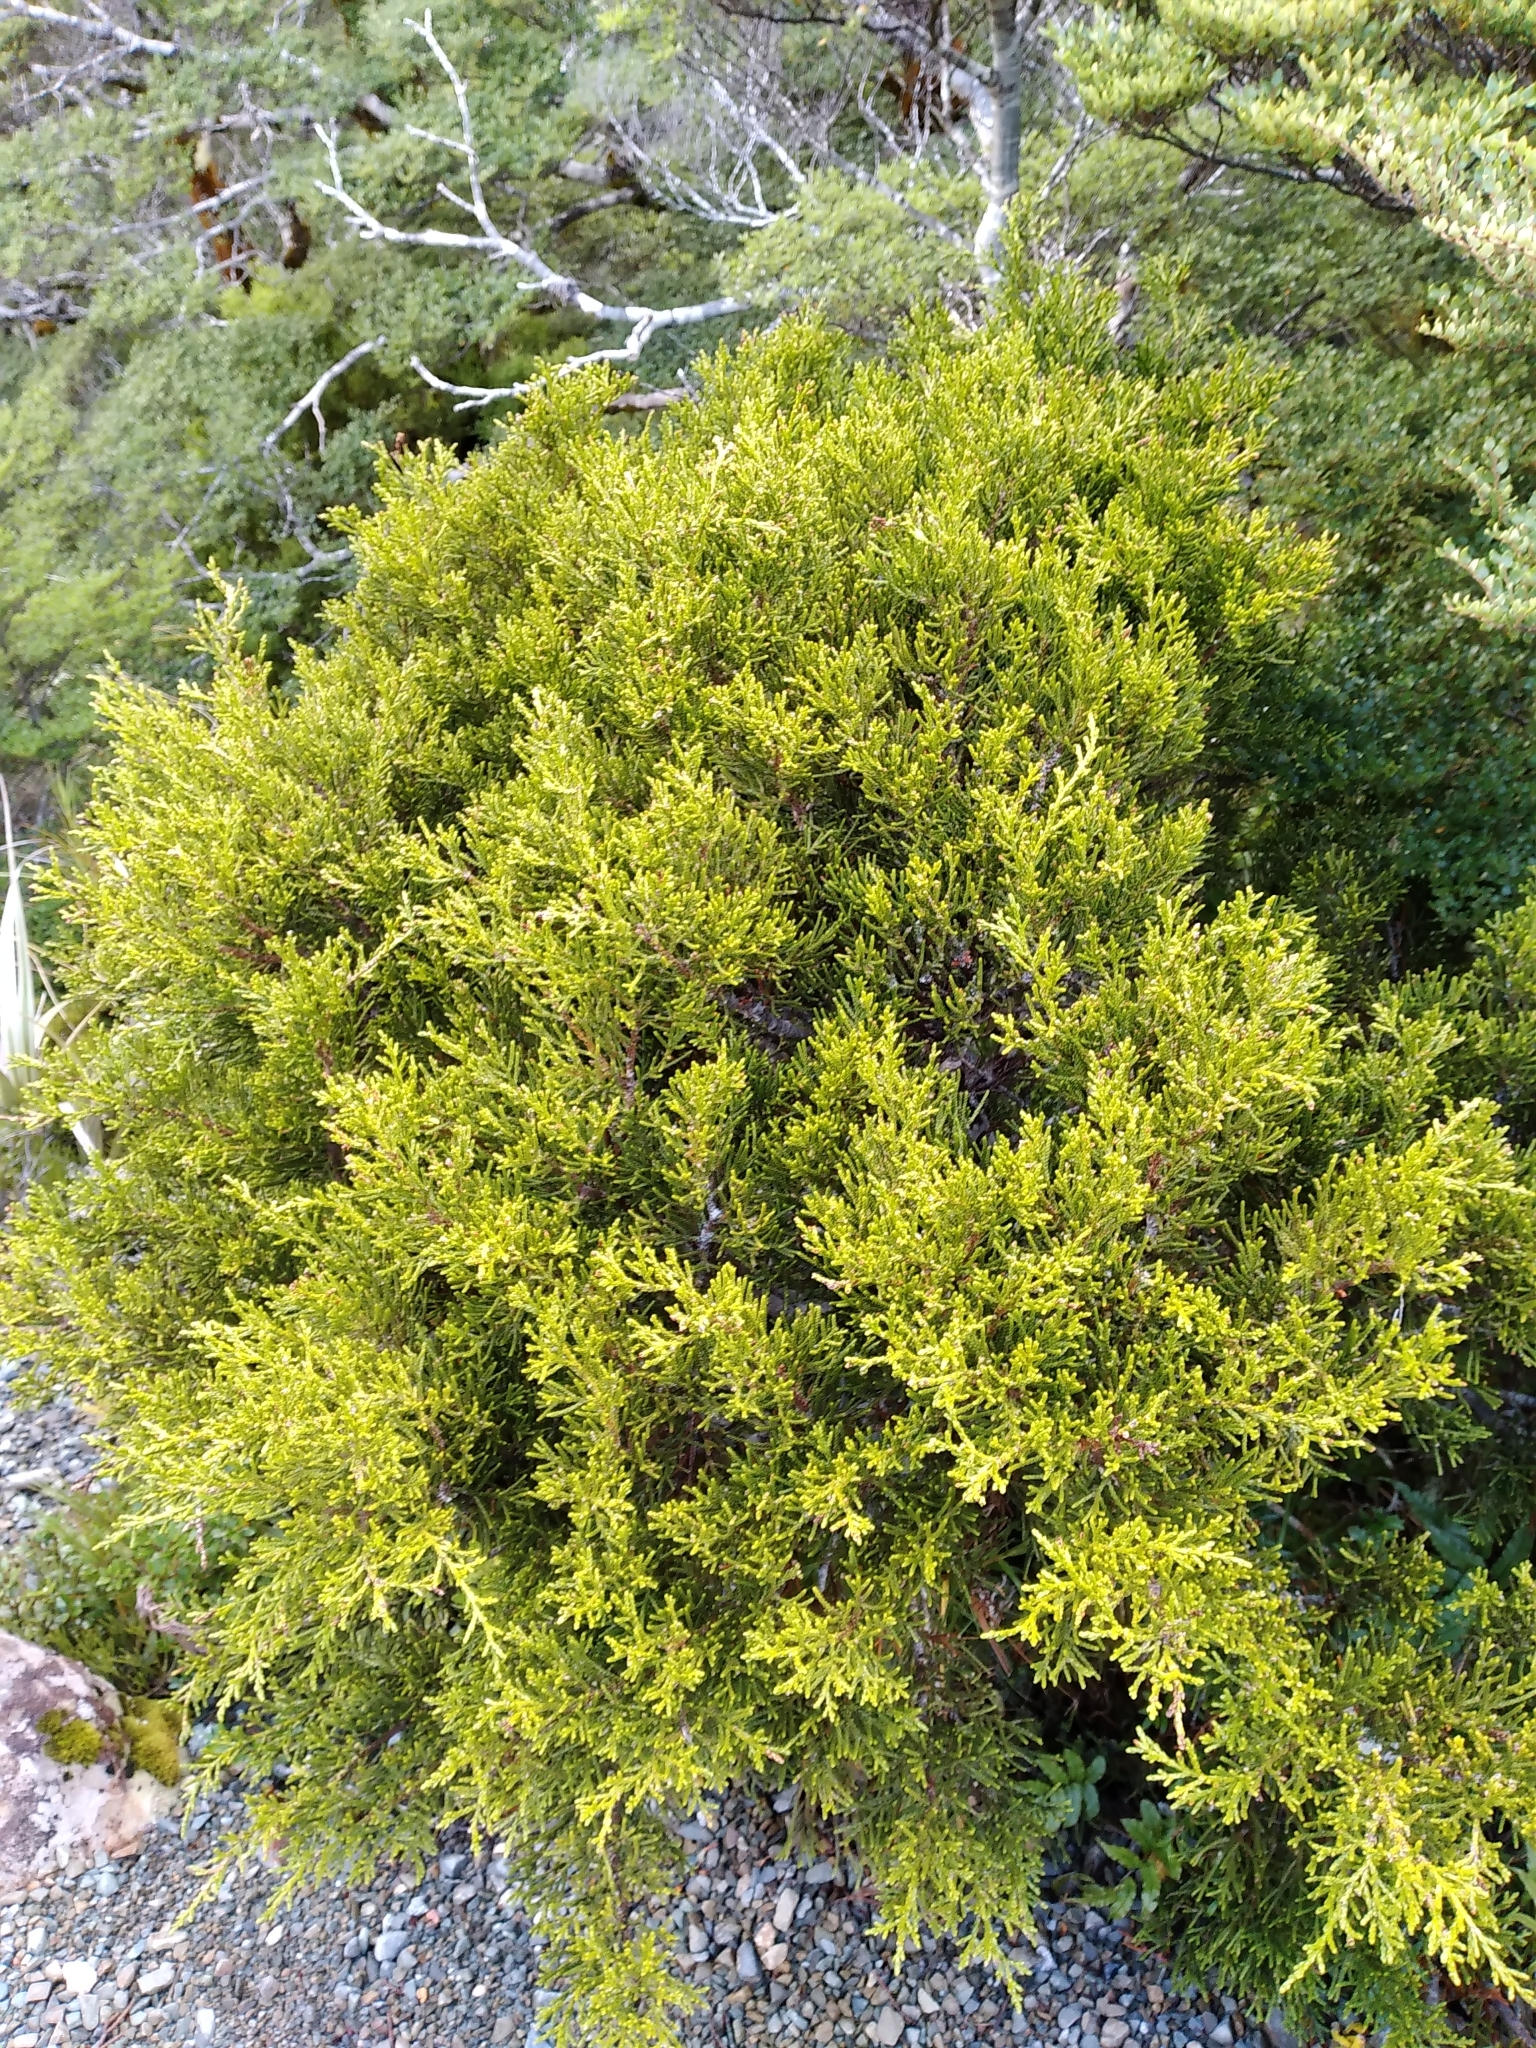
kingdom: Plantae
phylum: Tracheophyta
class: Pinopsida
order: Pinales
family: Podocarpaceae
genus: Halocarpus
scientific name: Halocarpus biformis
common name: Alpine tarwood
